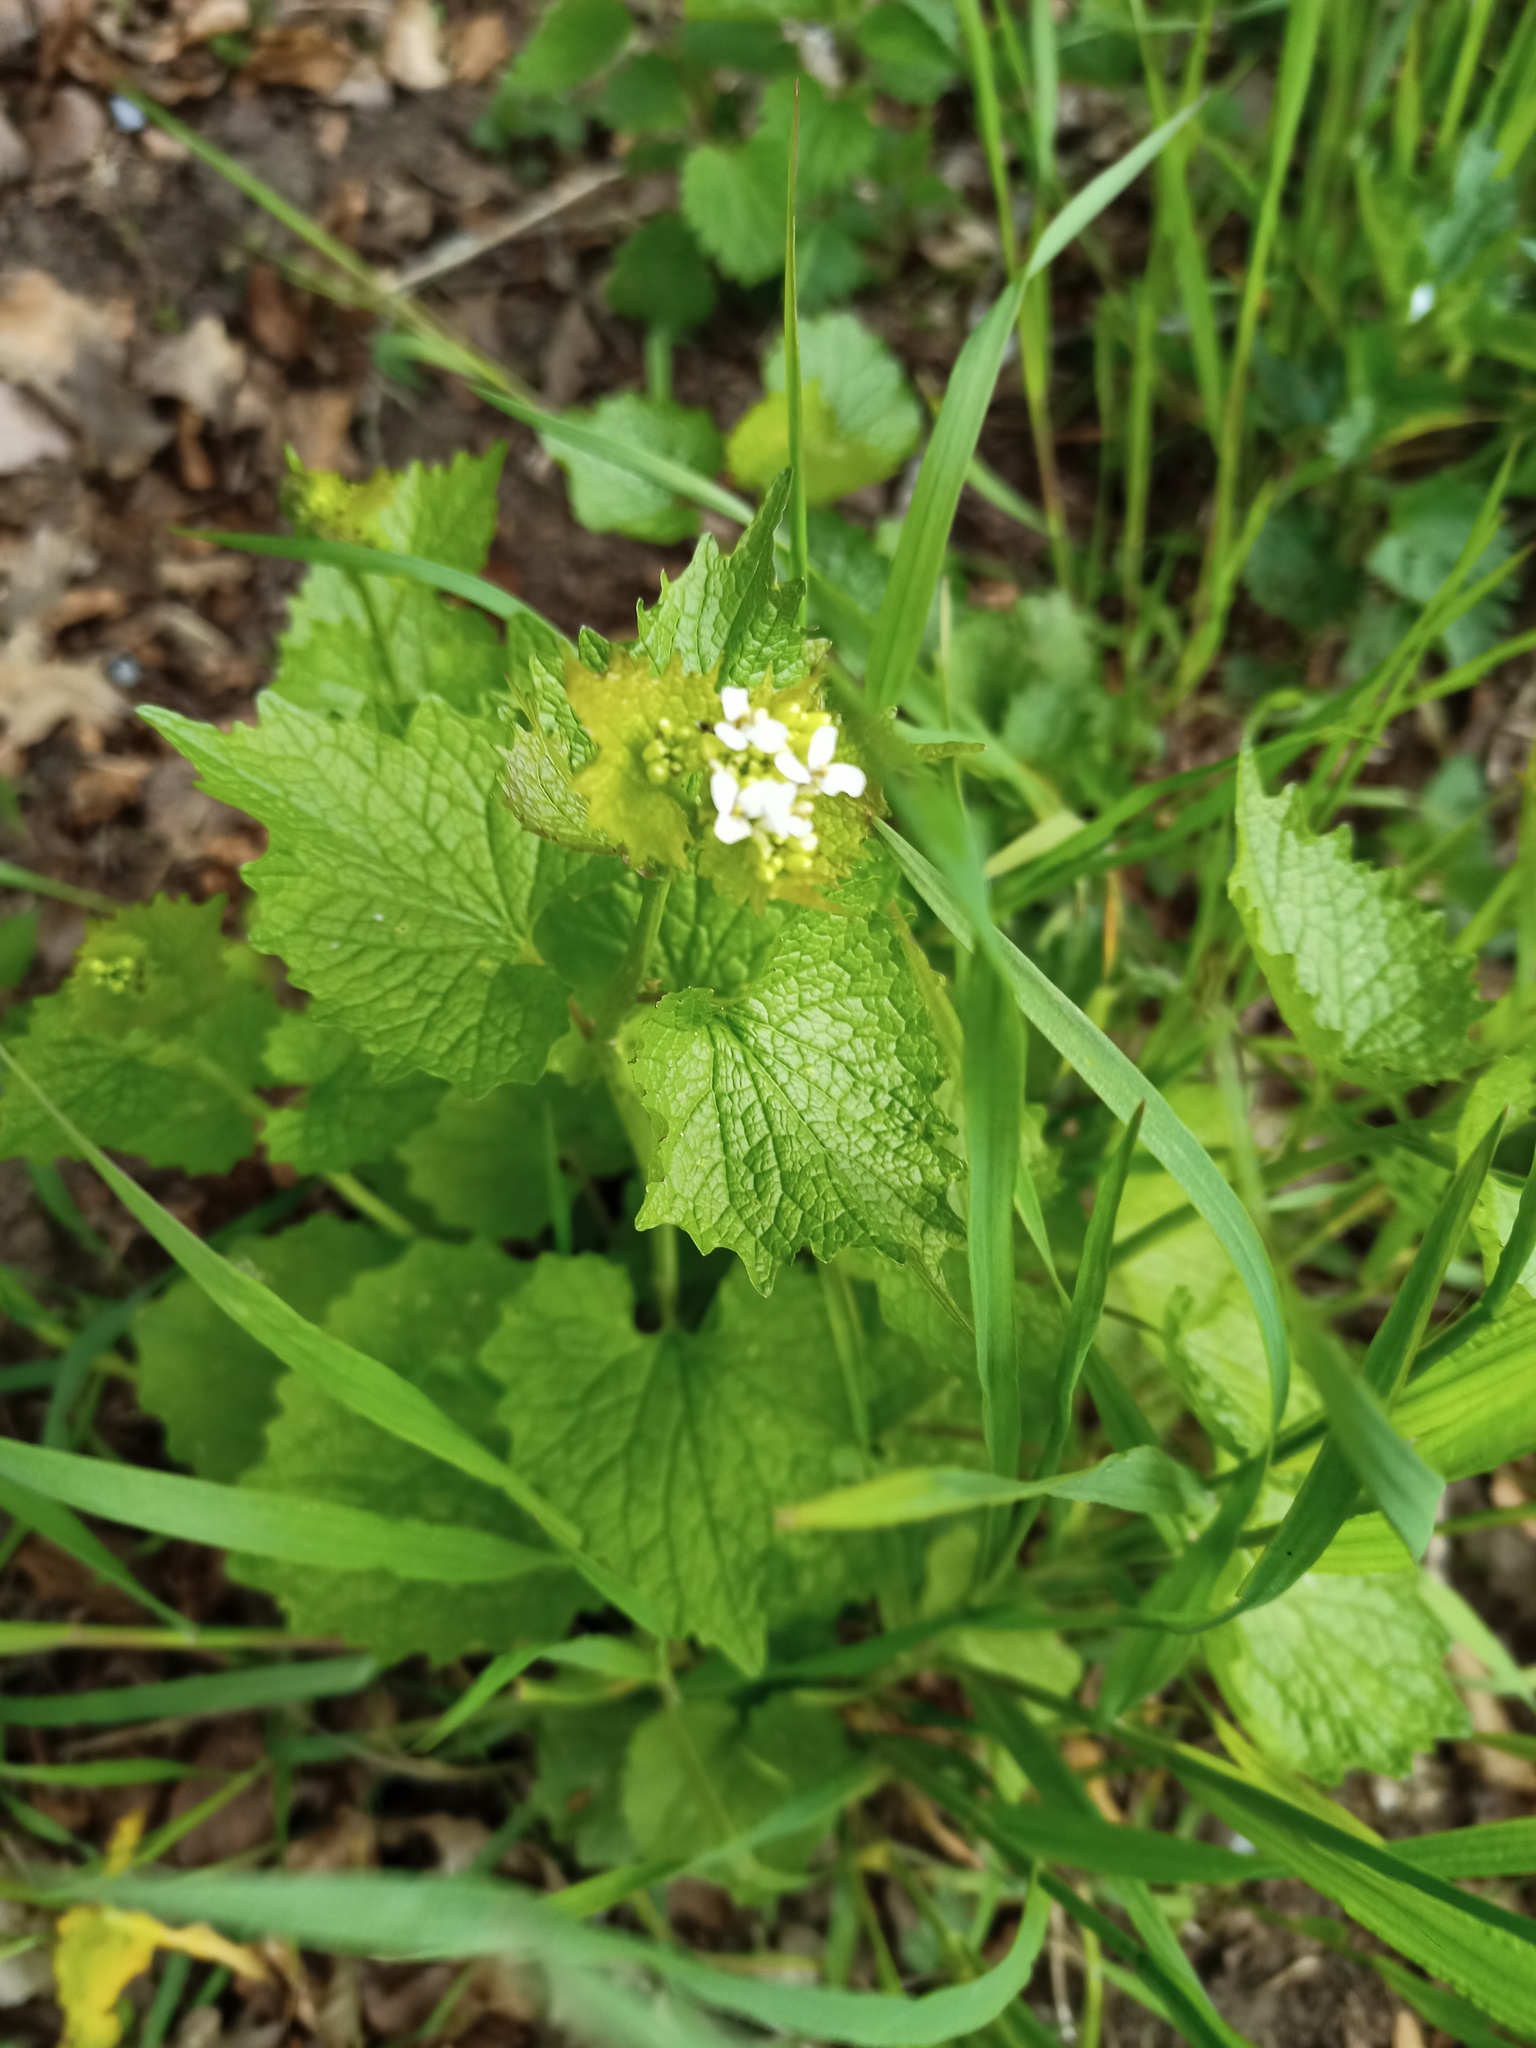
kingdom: Plantae
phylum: Tracheophyta
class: Magnoliopsida
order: Brassicales
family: Brassicaceae
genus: Alliaria
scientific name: Alliaria petiolata
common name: Garlic mustard
